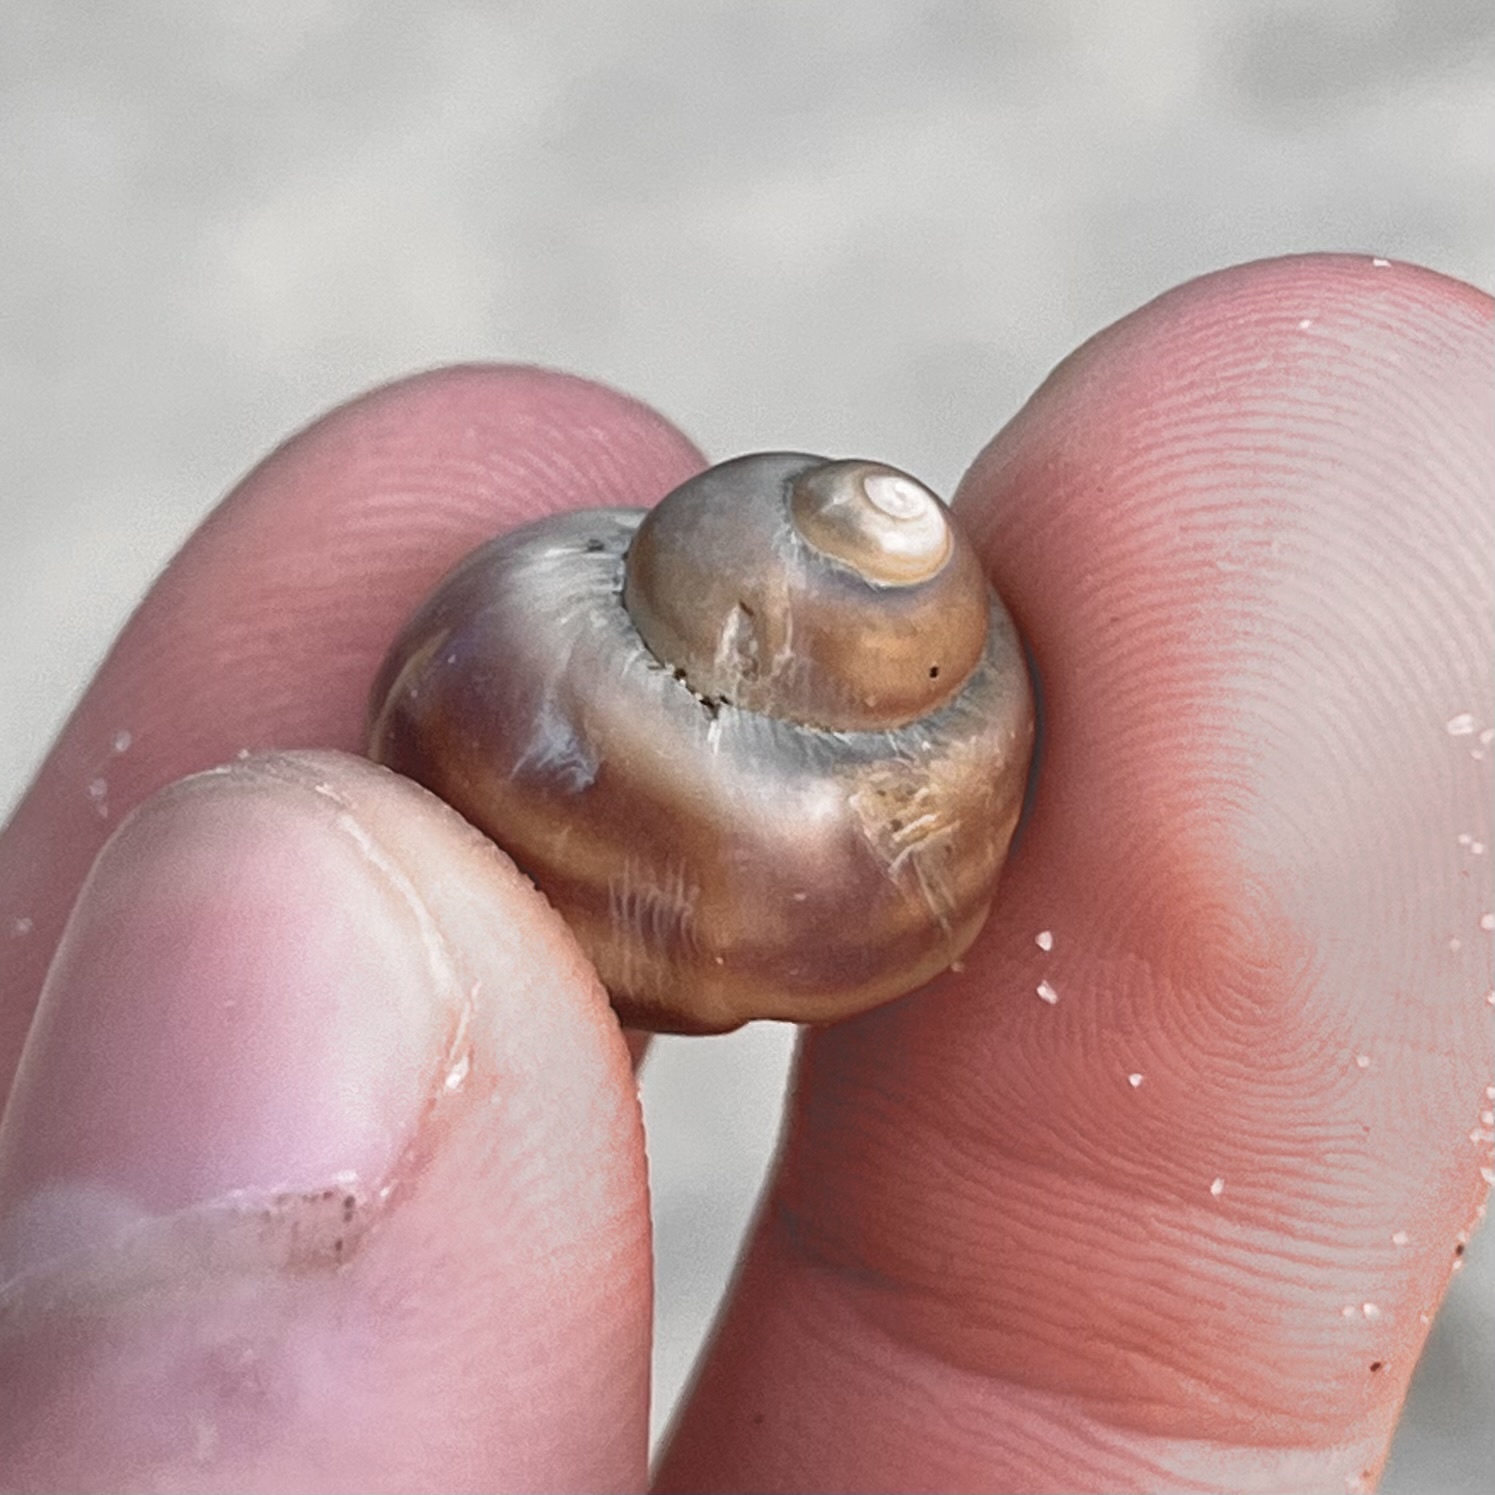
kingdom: Animalia
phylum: Mollusca
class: Gastropoda
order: Architaenioglossa
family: Viviparidae
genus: Viviparus
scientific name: Viviparus viviparus
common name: River snail
